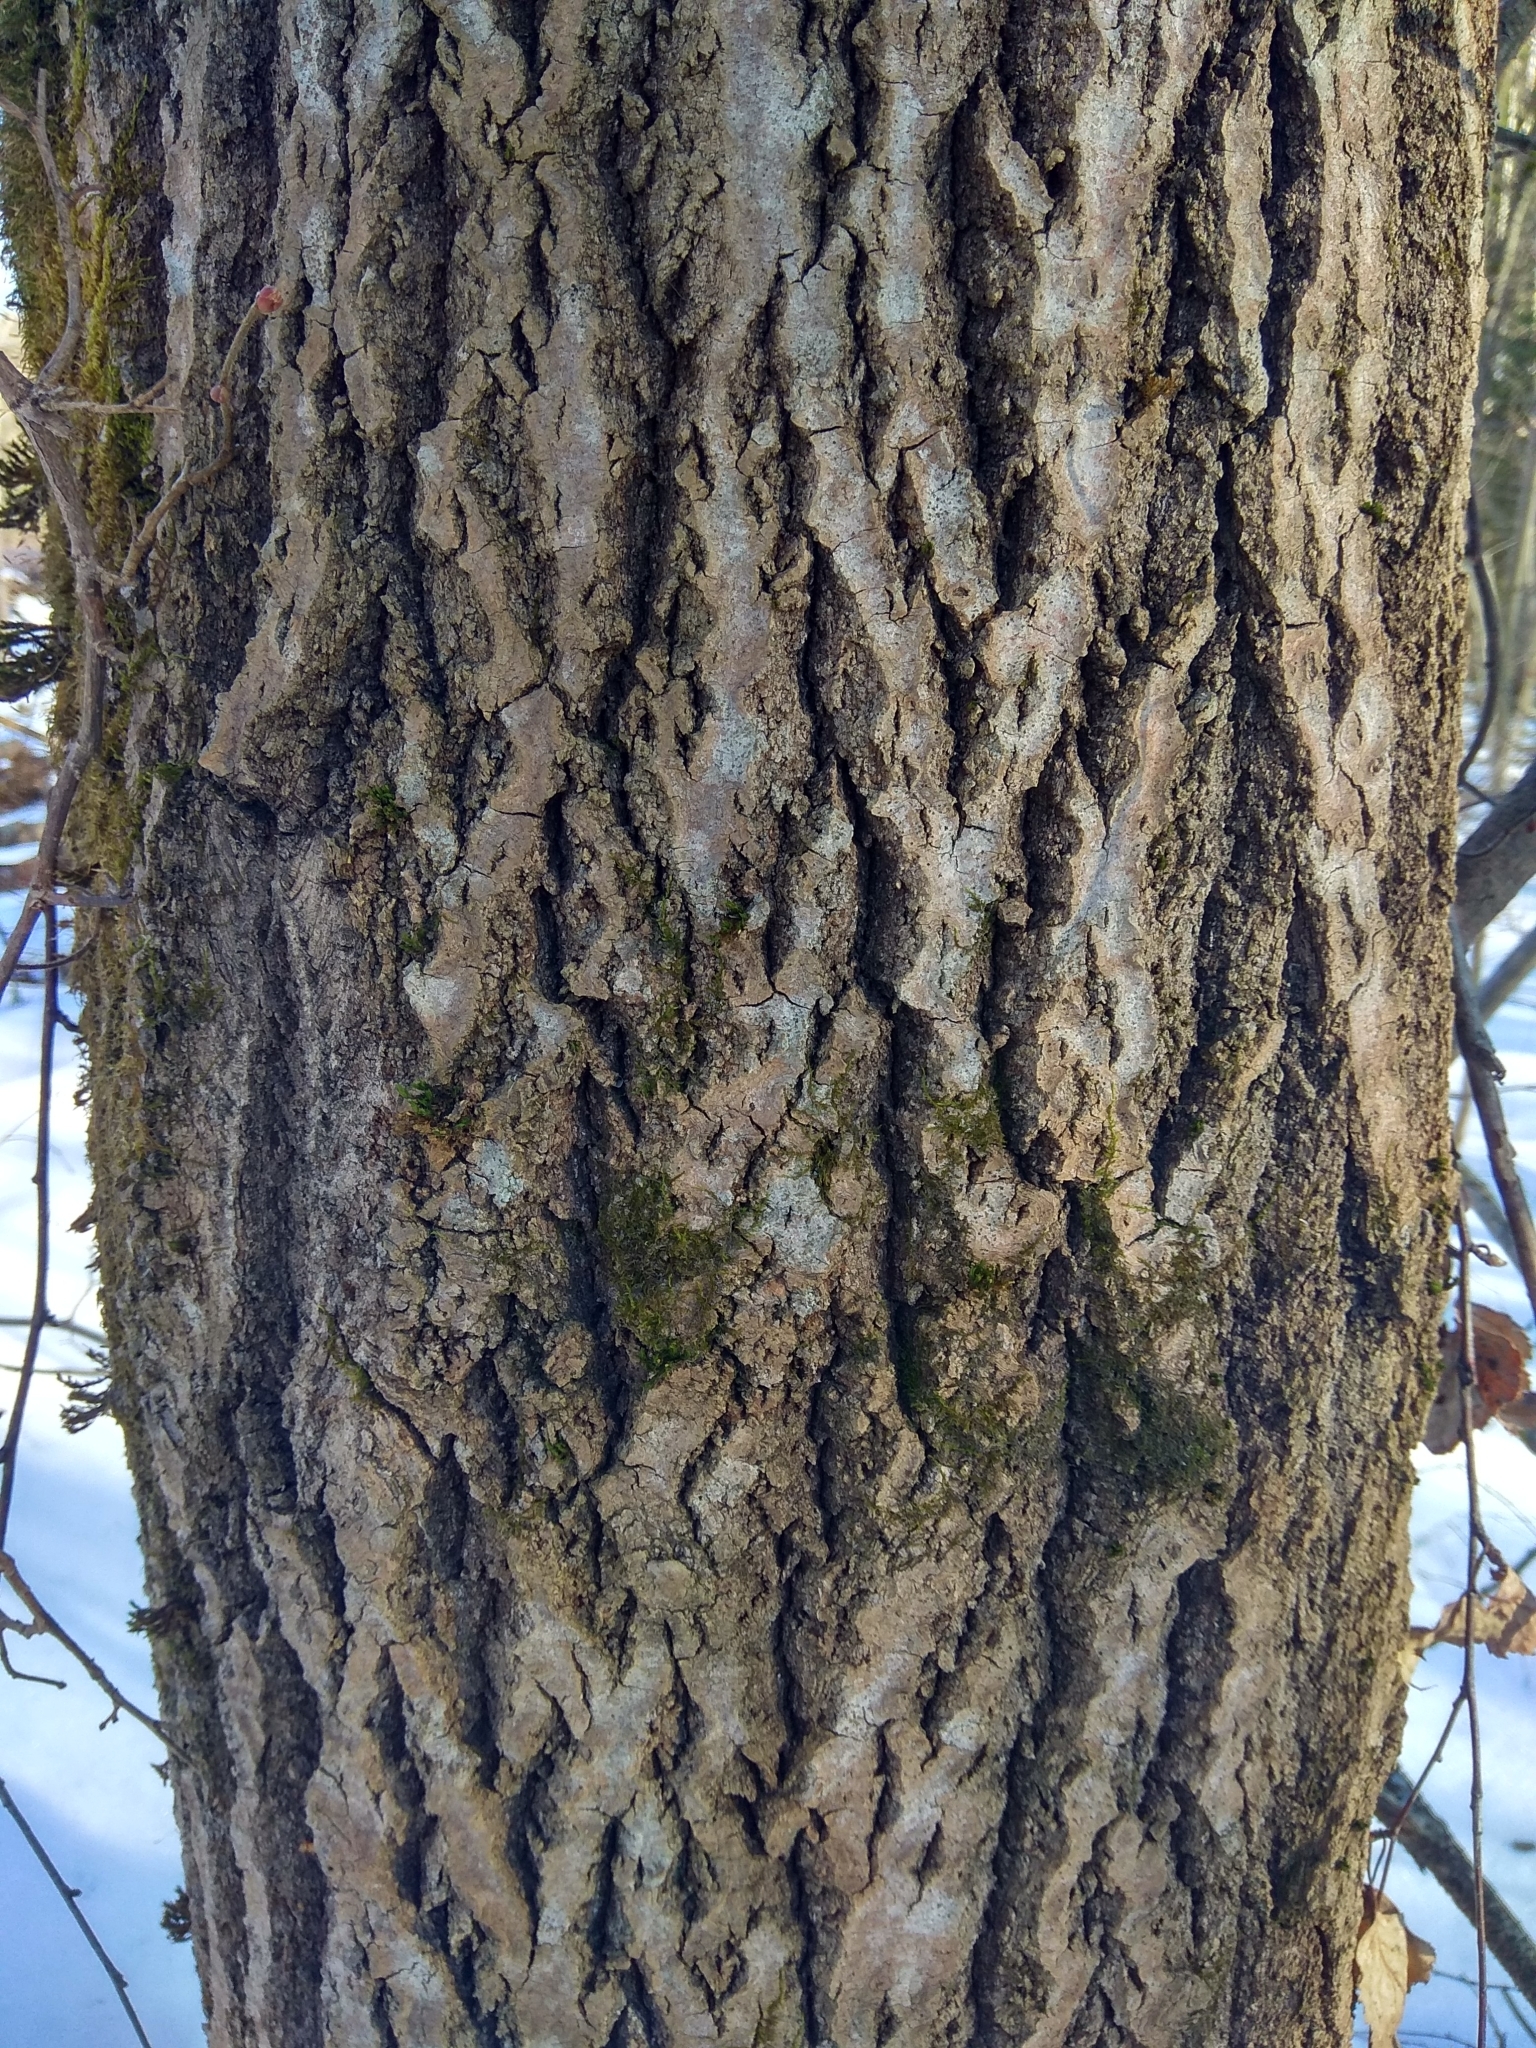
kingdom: Plantae
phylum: Tracheophyta
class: Magnoliopsida
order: Malpighiales
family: Salicaceae
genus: Populus
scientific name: Populus tremula
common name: European aspen
